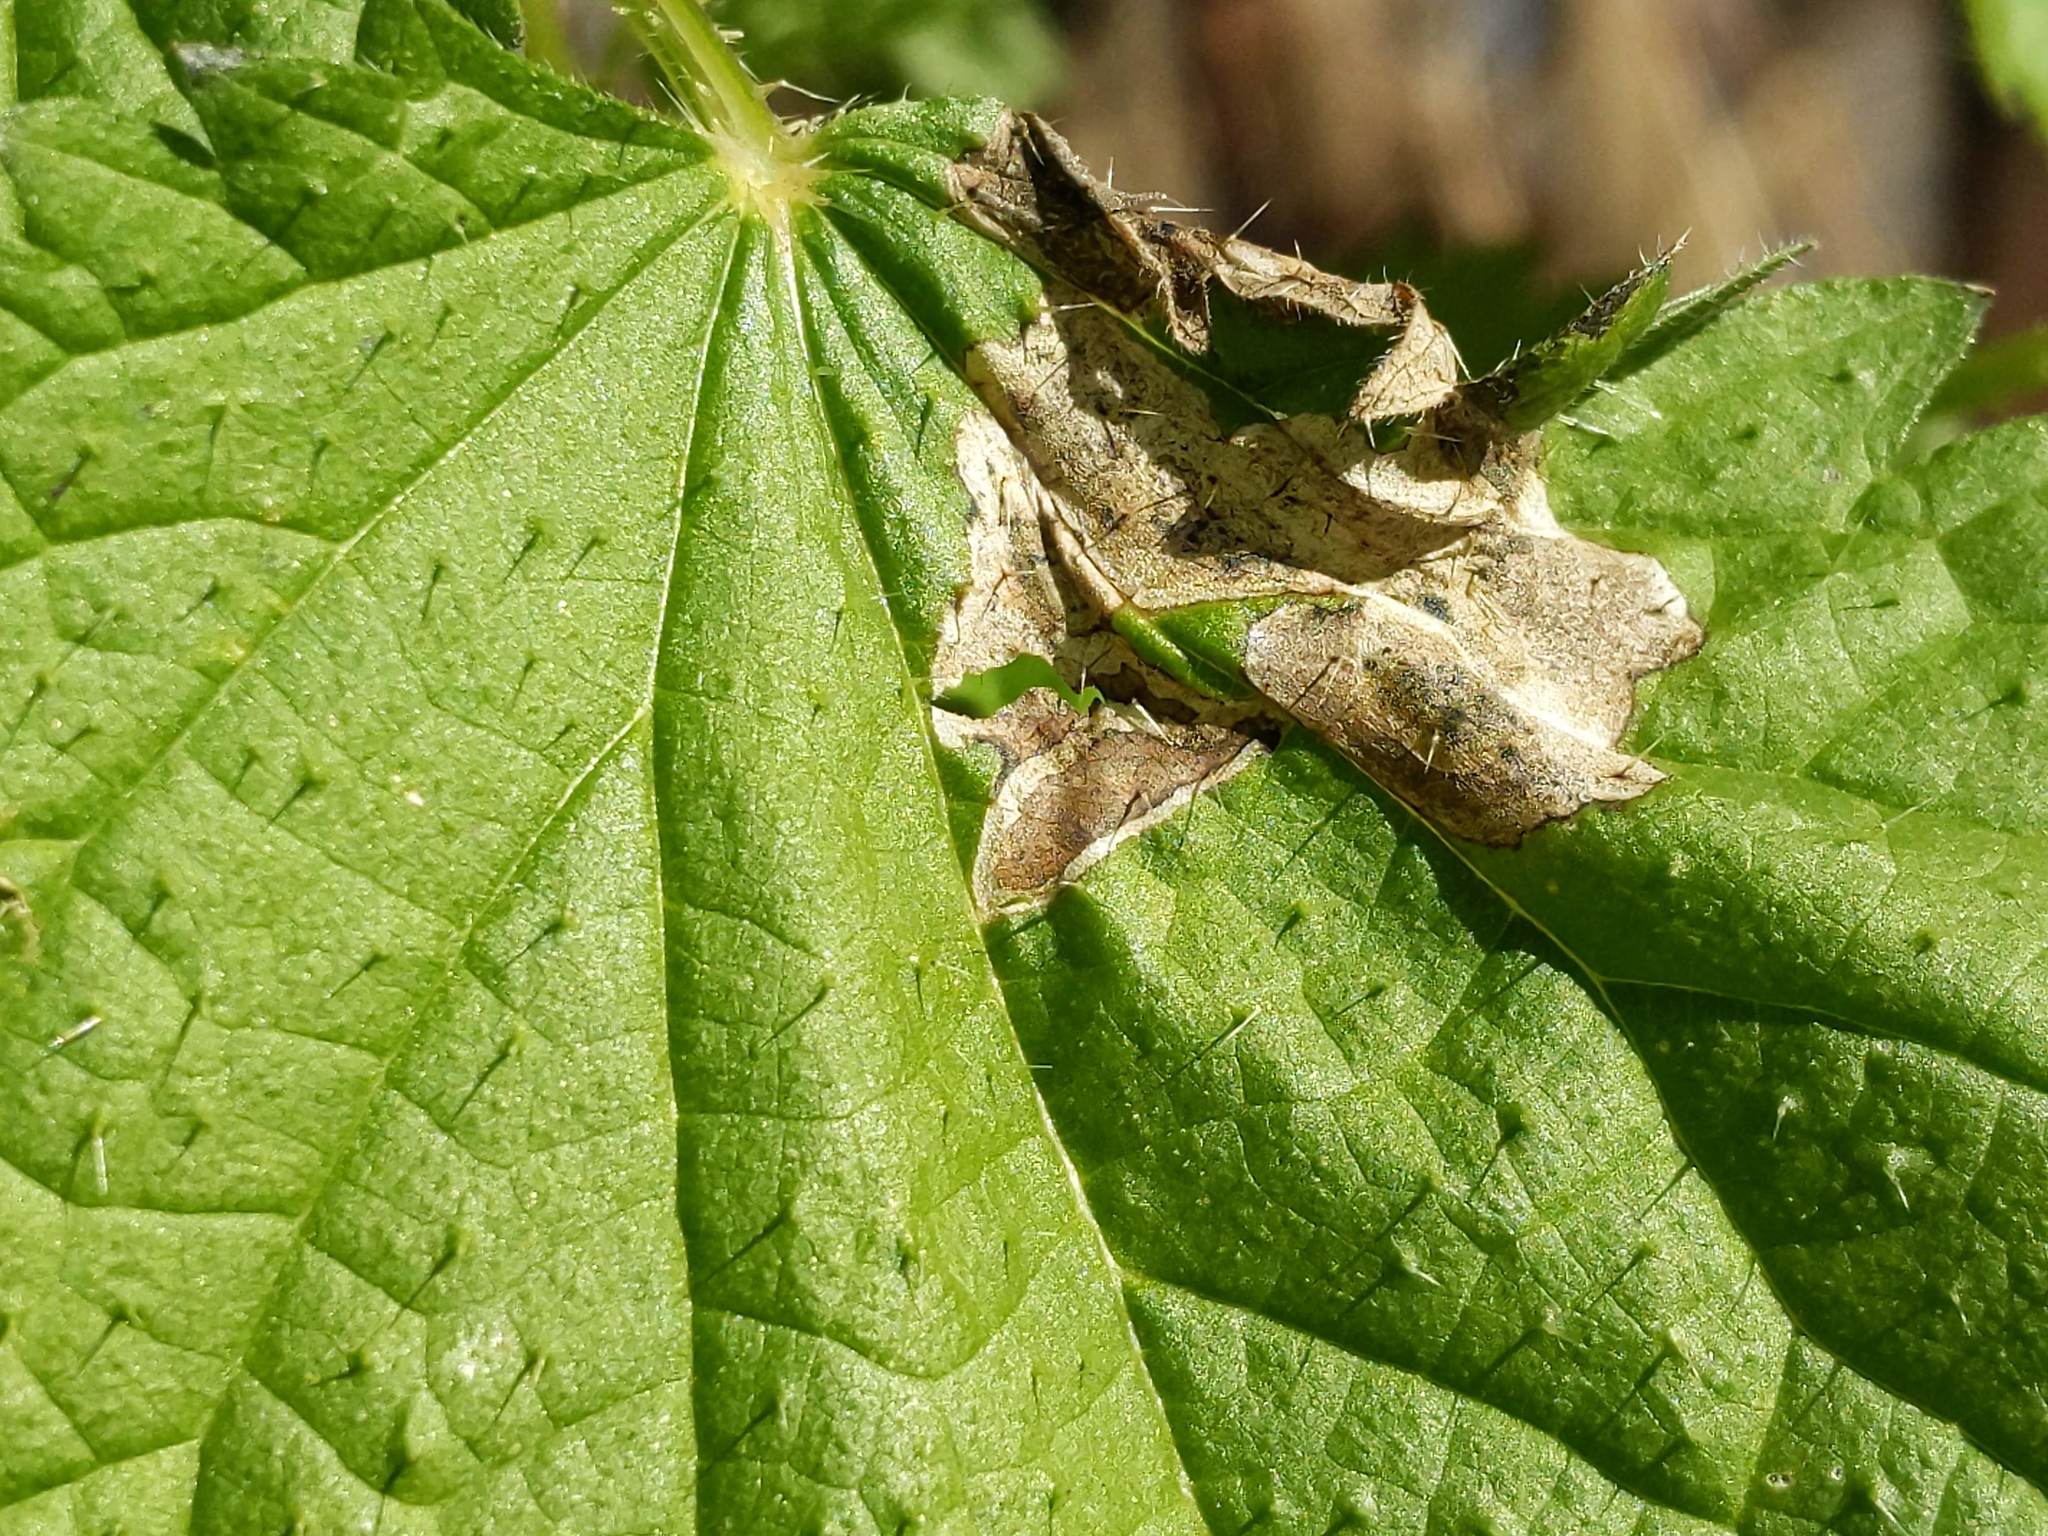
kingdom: Animalia
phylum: Arthropoda
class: Insecta
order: Diptera
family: Agromyzidae
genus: Agromyza
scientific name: Agromyza pseudoreptans
